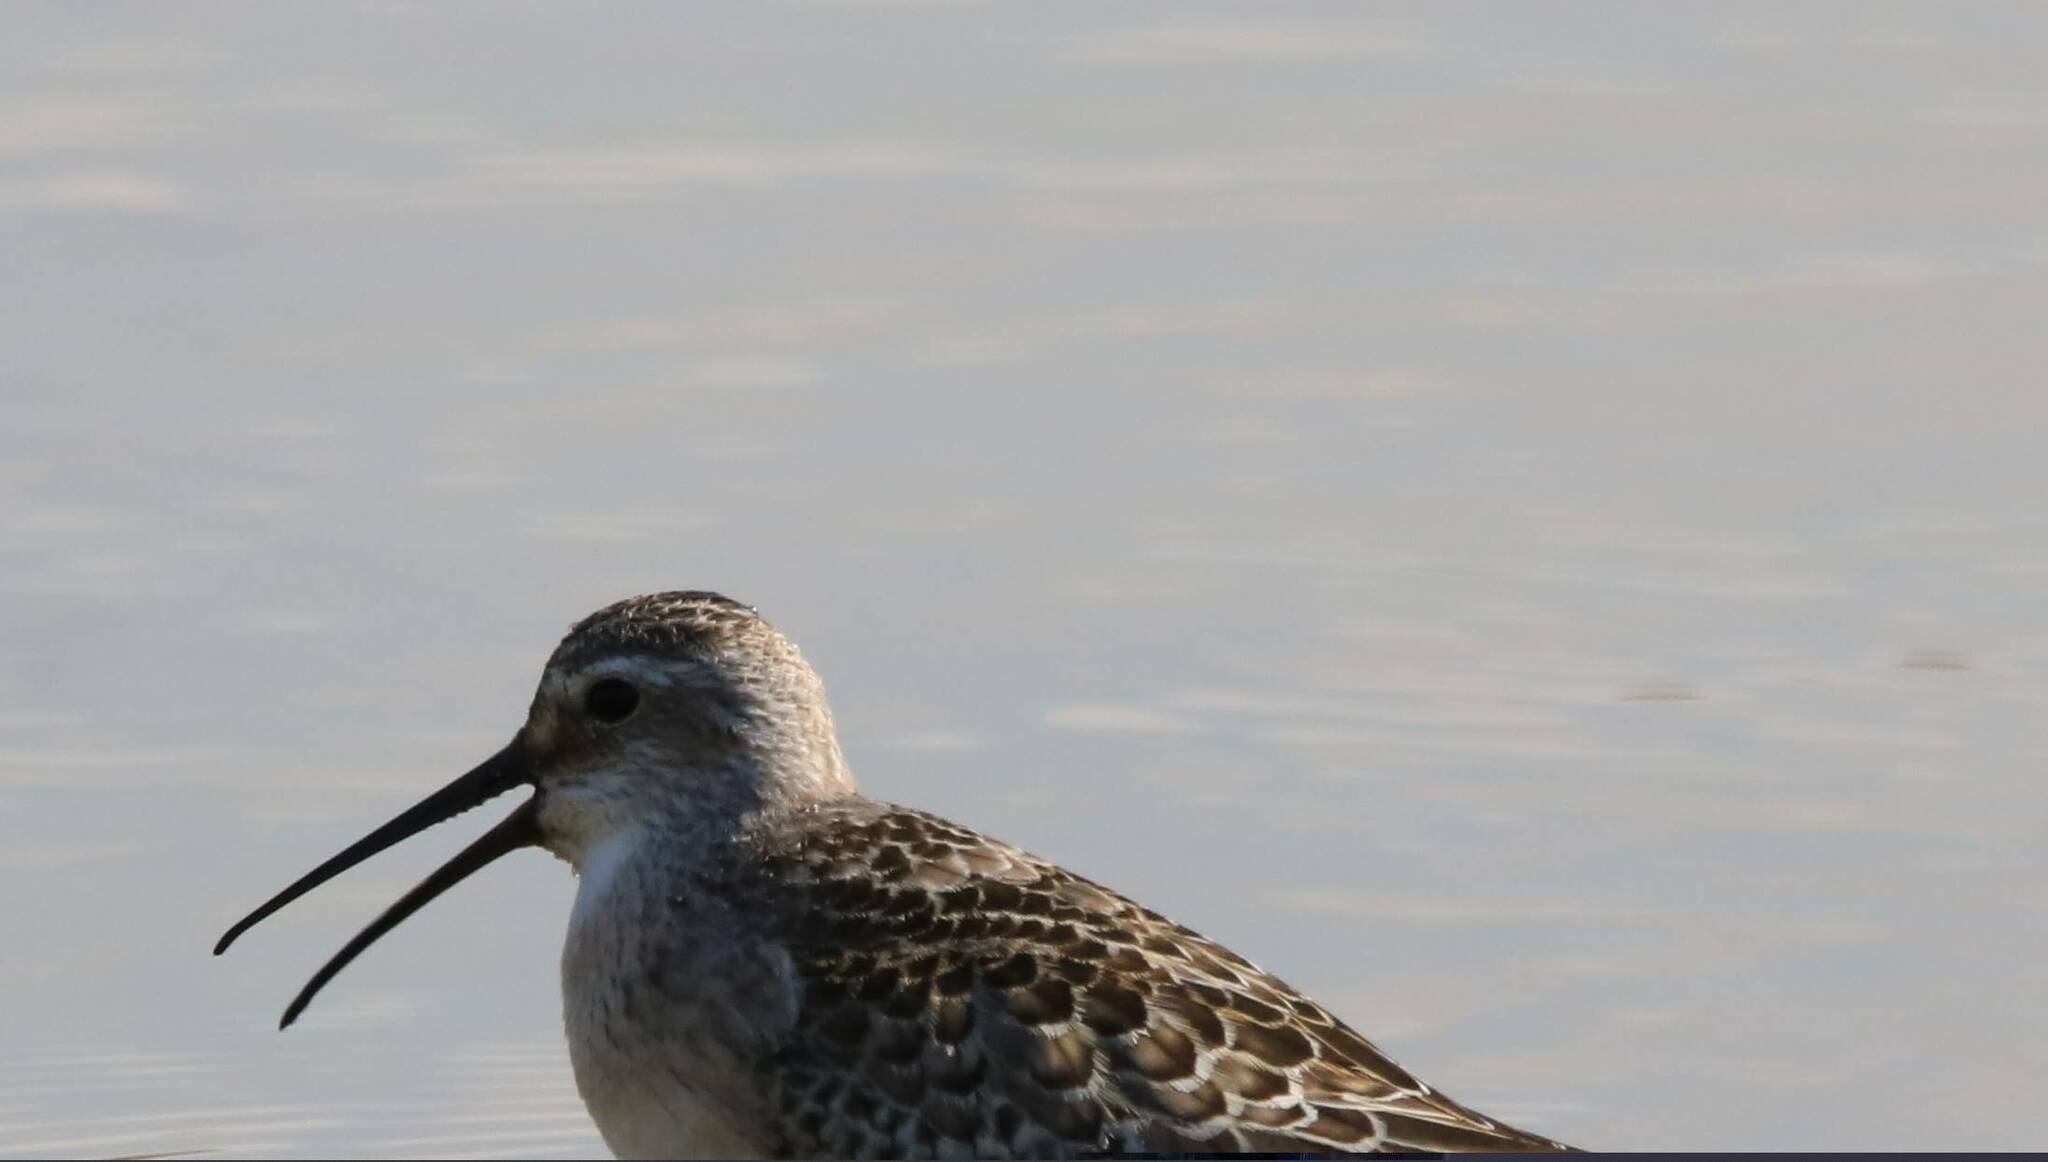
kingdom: Animalia
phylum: Chordata
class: Aves
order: Charadriiformes
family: Scolopacidae
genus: Calidris
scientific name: Calidris ferruginea
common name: Curlew sandpiper
